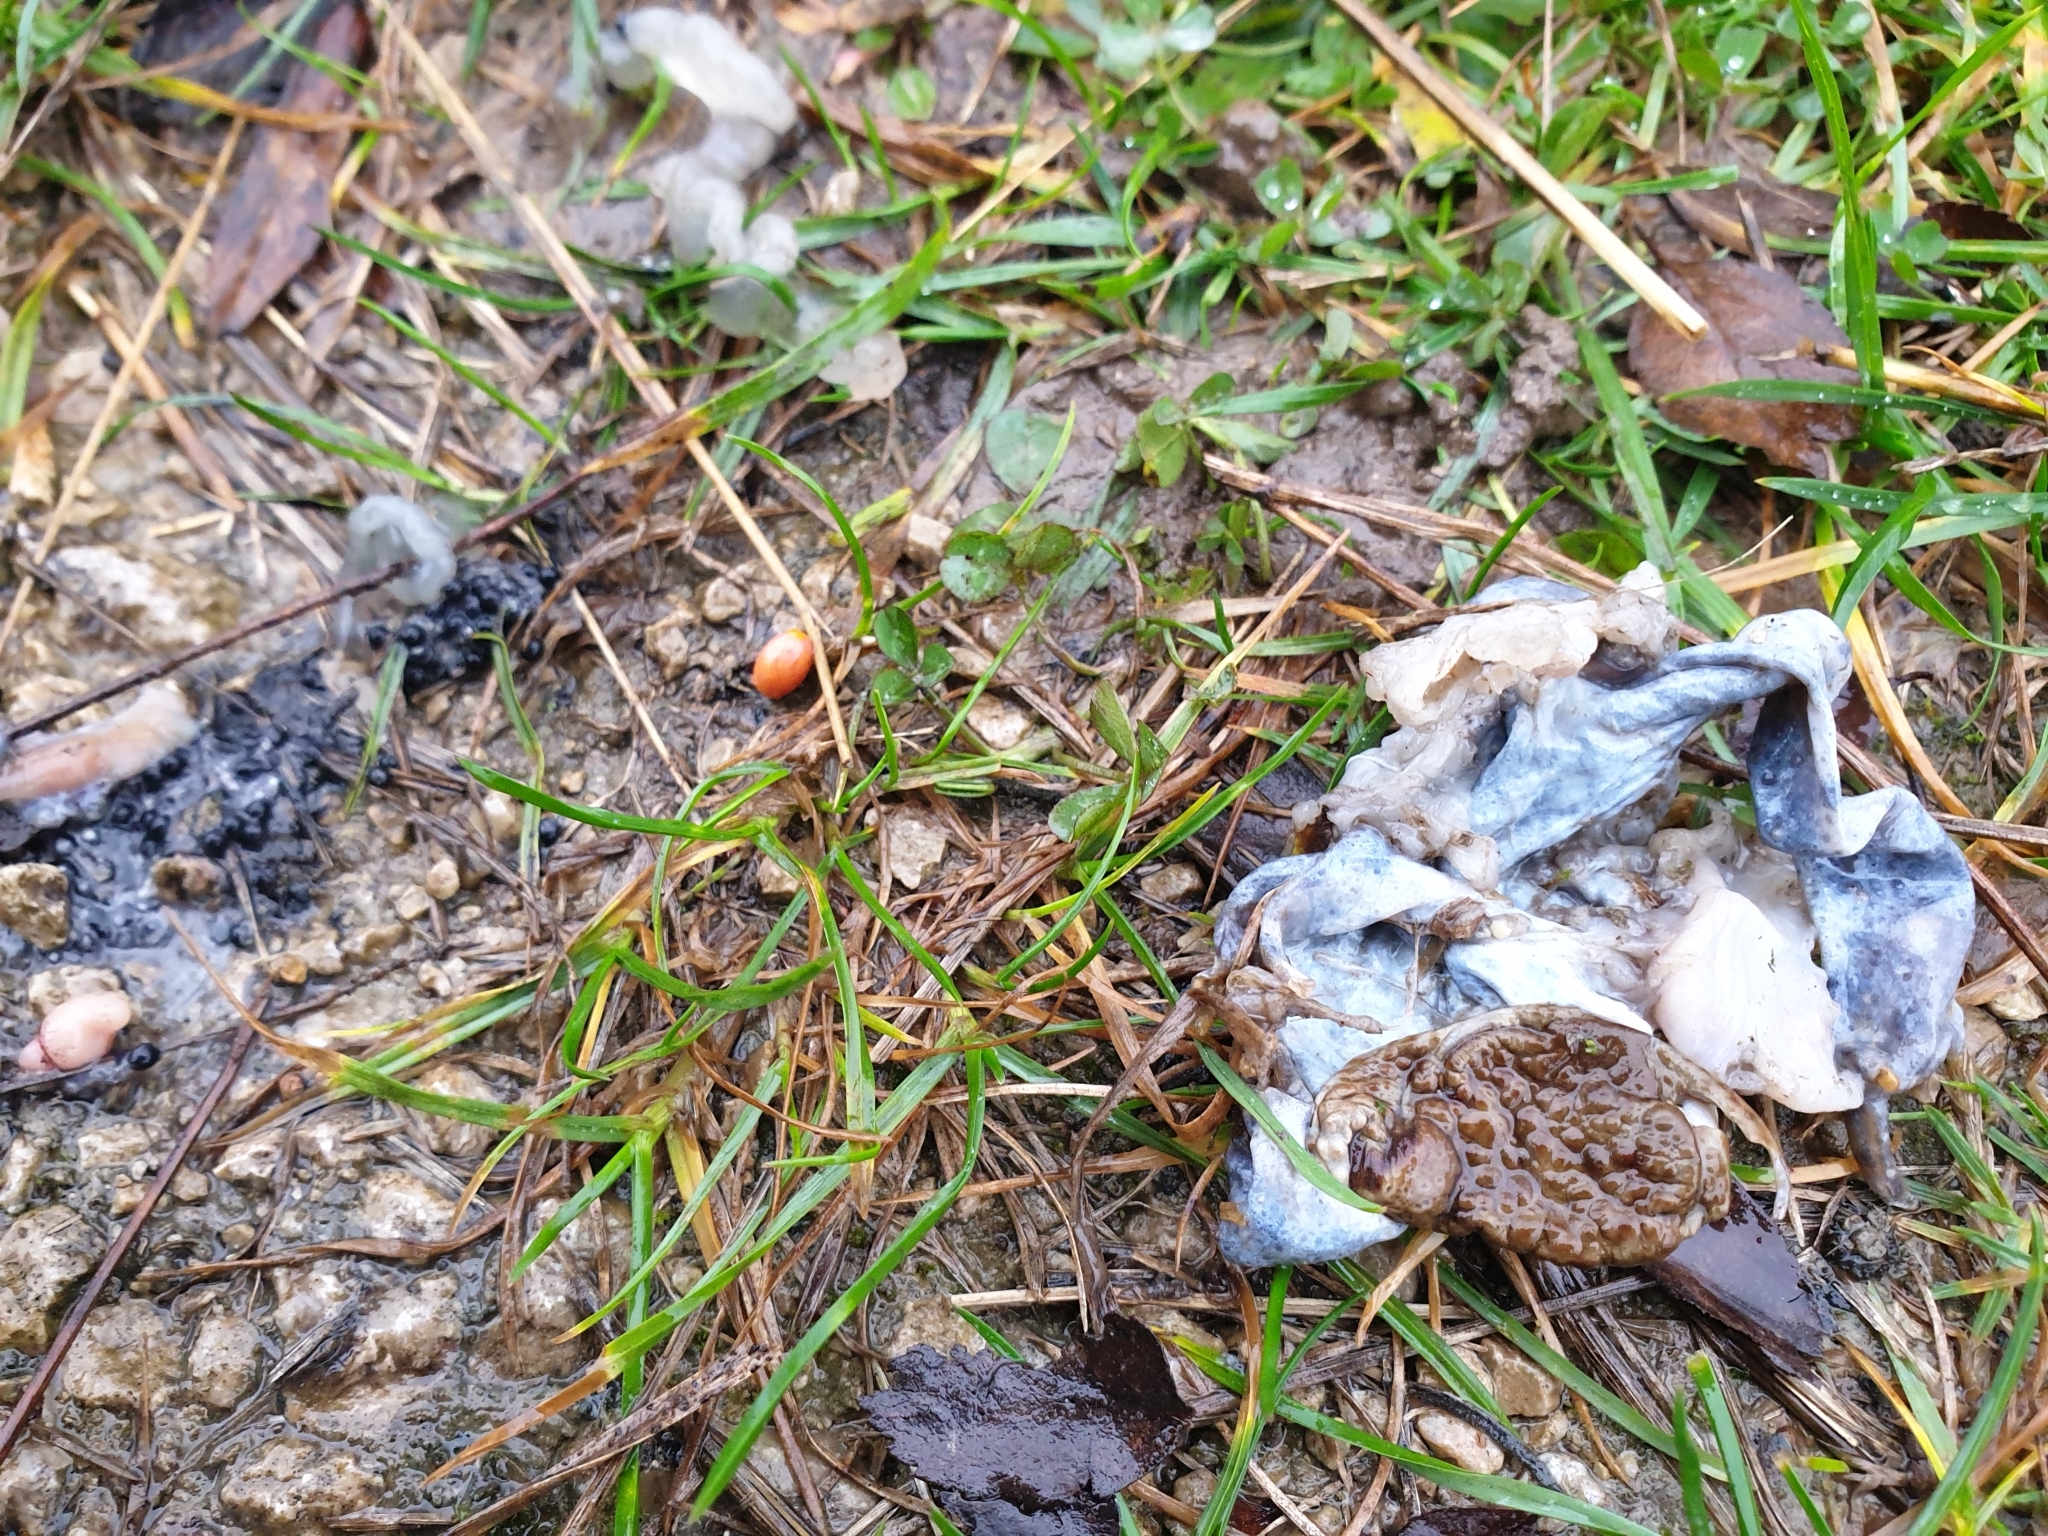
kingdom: Animalia
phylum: Chordata
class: Amphibia
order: Anura
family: Bufonidae
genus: Bufo
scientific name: Bufo bufo
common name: Common toad
